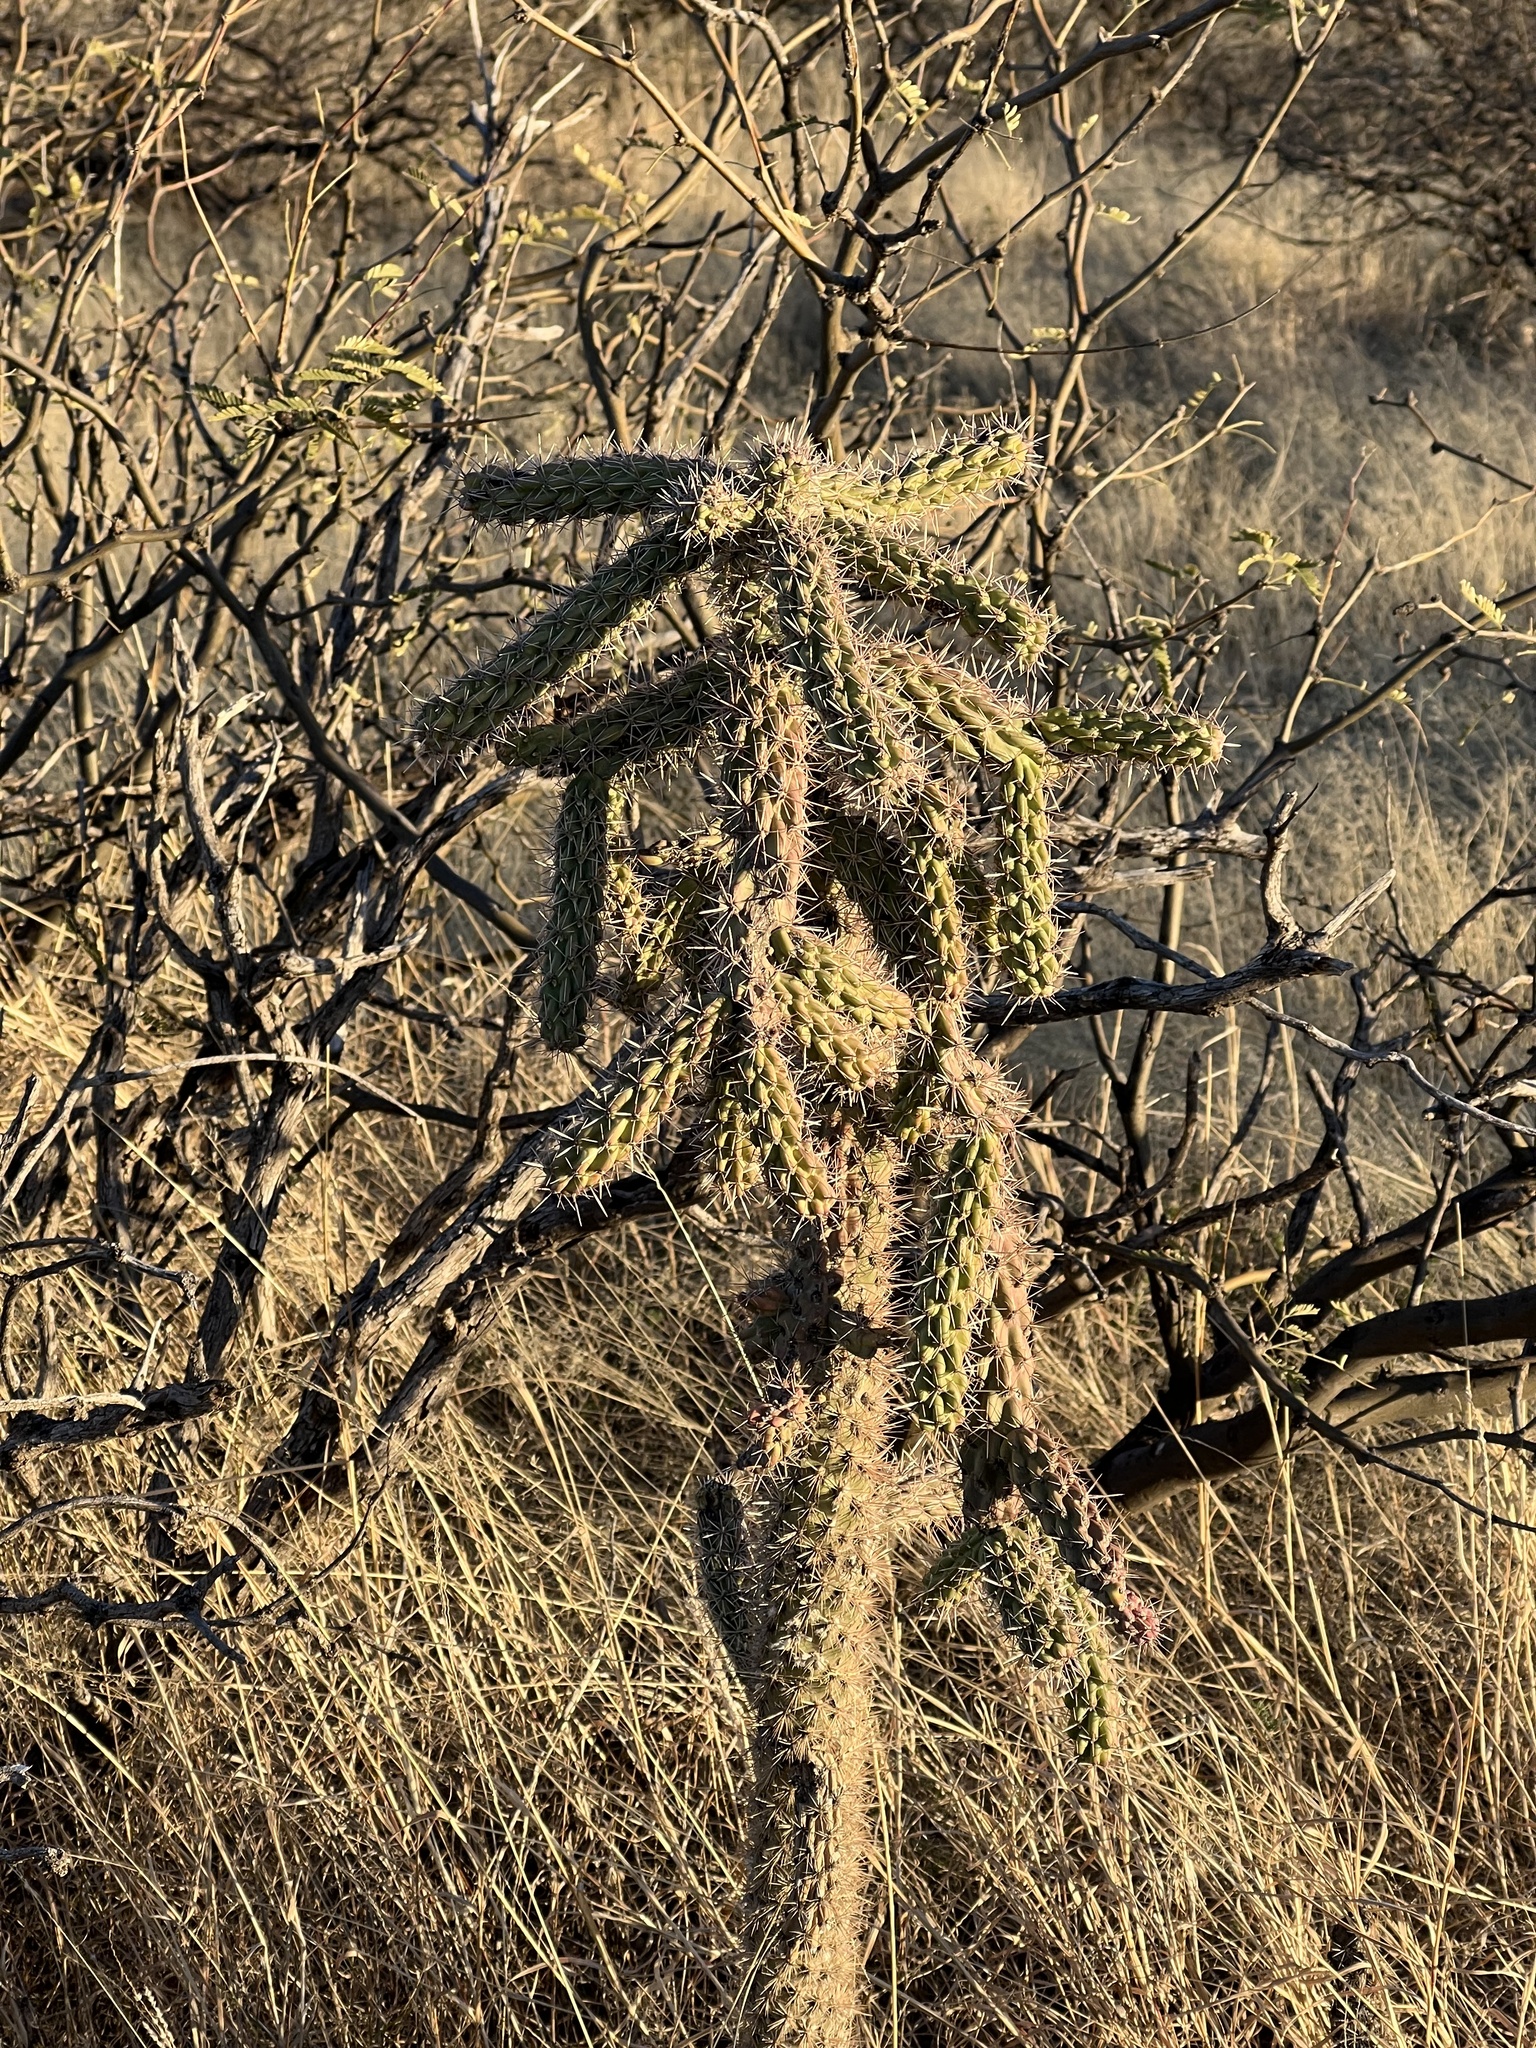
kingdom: Plantae
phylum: Tracheophyta
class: Magnoliopsida
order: Caryophyllales
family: Cactaceae
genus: Cylindropuntia
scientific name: Cylindropuntia imbricata
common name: Candelabrum cactus
